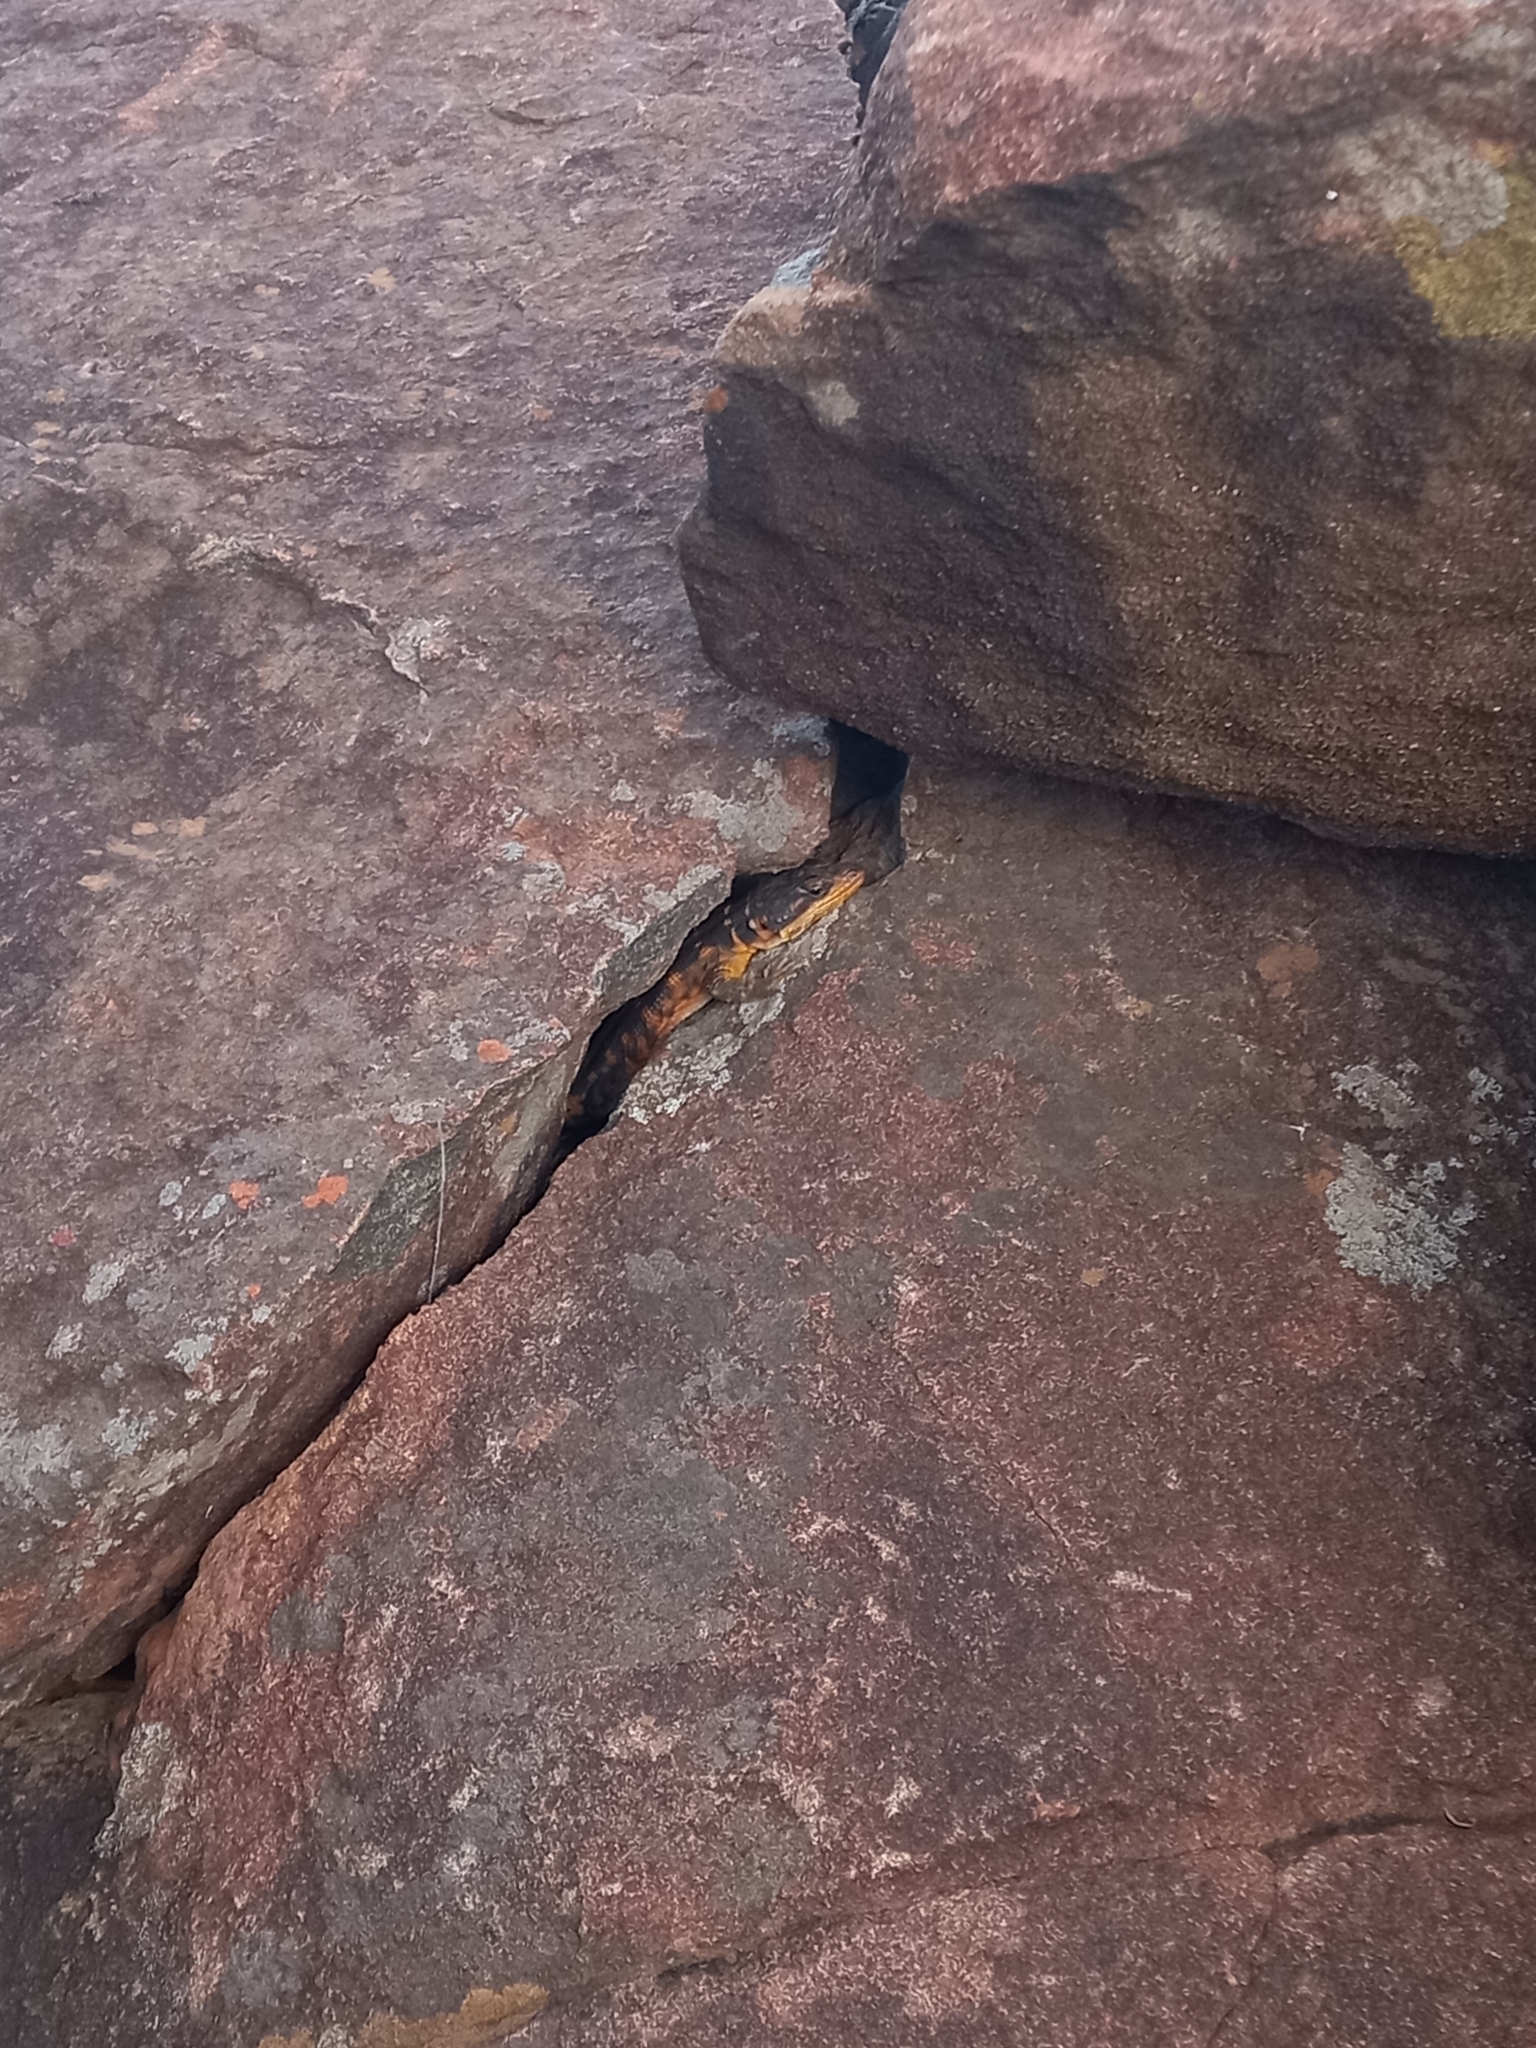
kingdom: Animalia
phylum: Chordata
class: Squamata
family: Cordylidae
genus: Pseudocordylus
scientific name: Pseudocordylus microlepidotus
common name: Cape crag lizard
